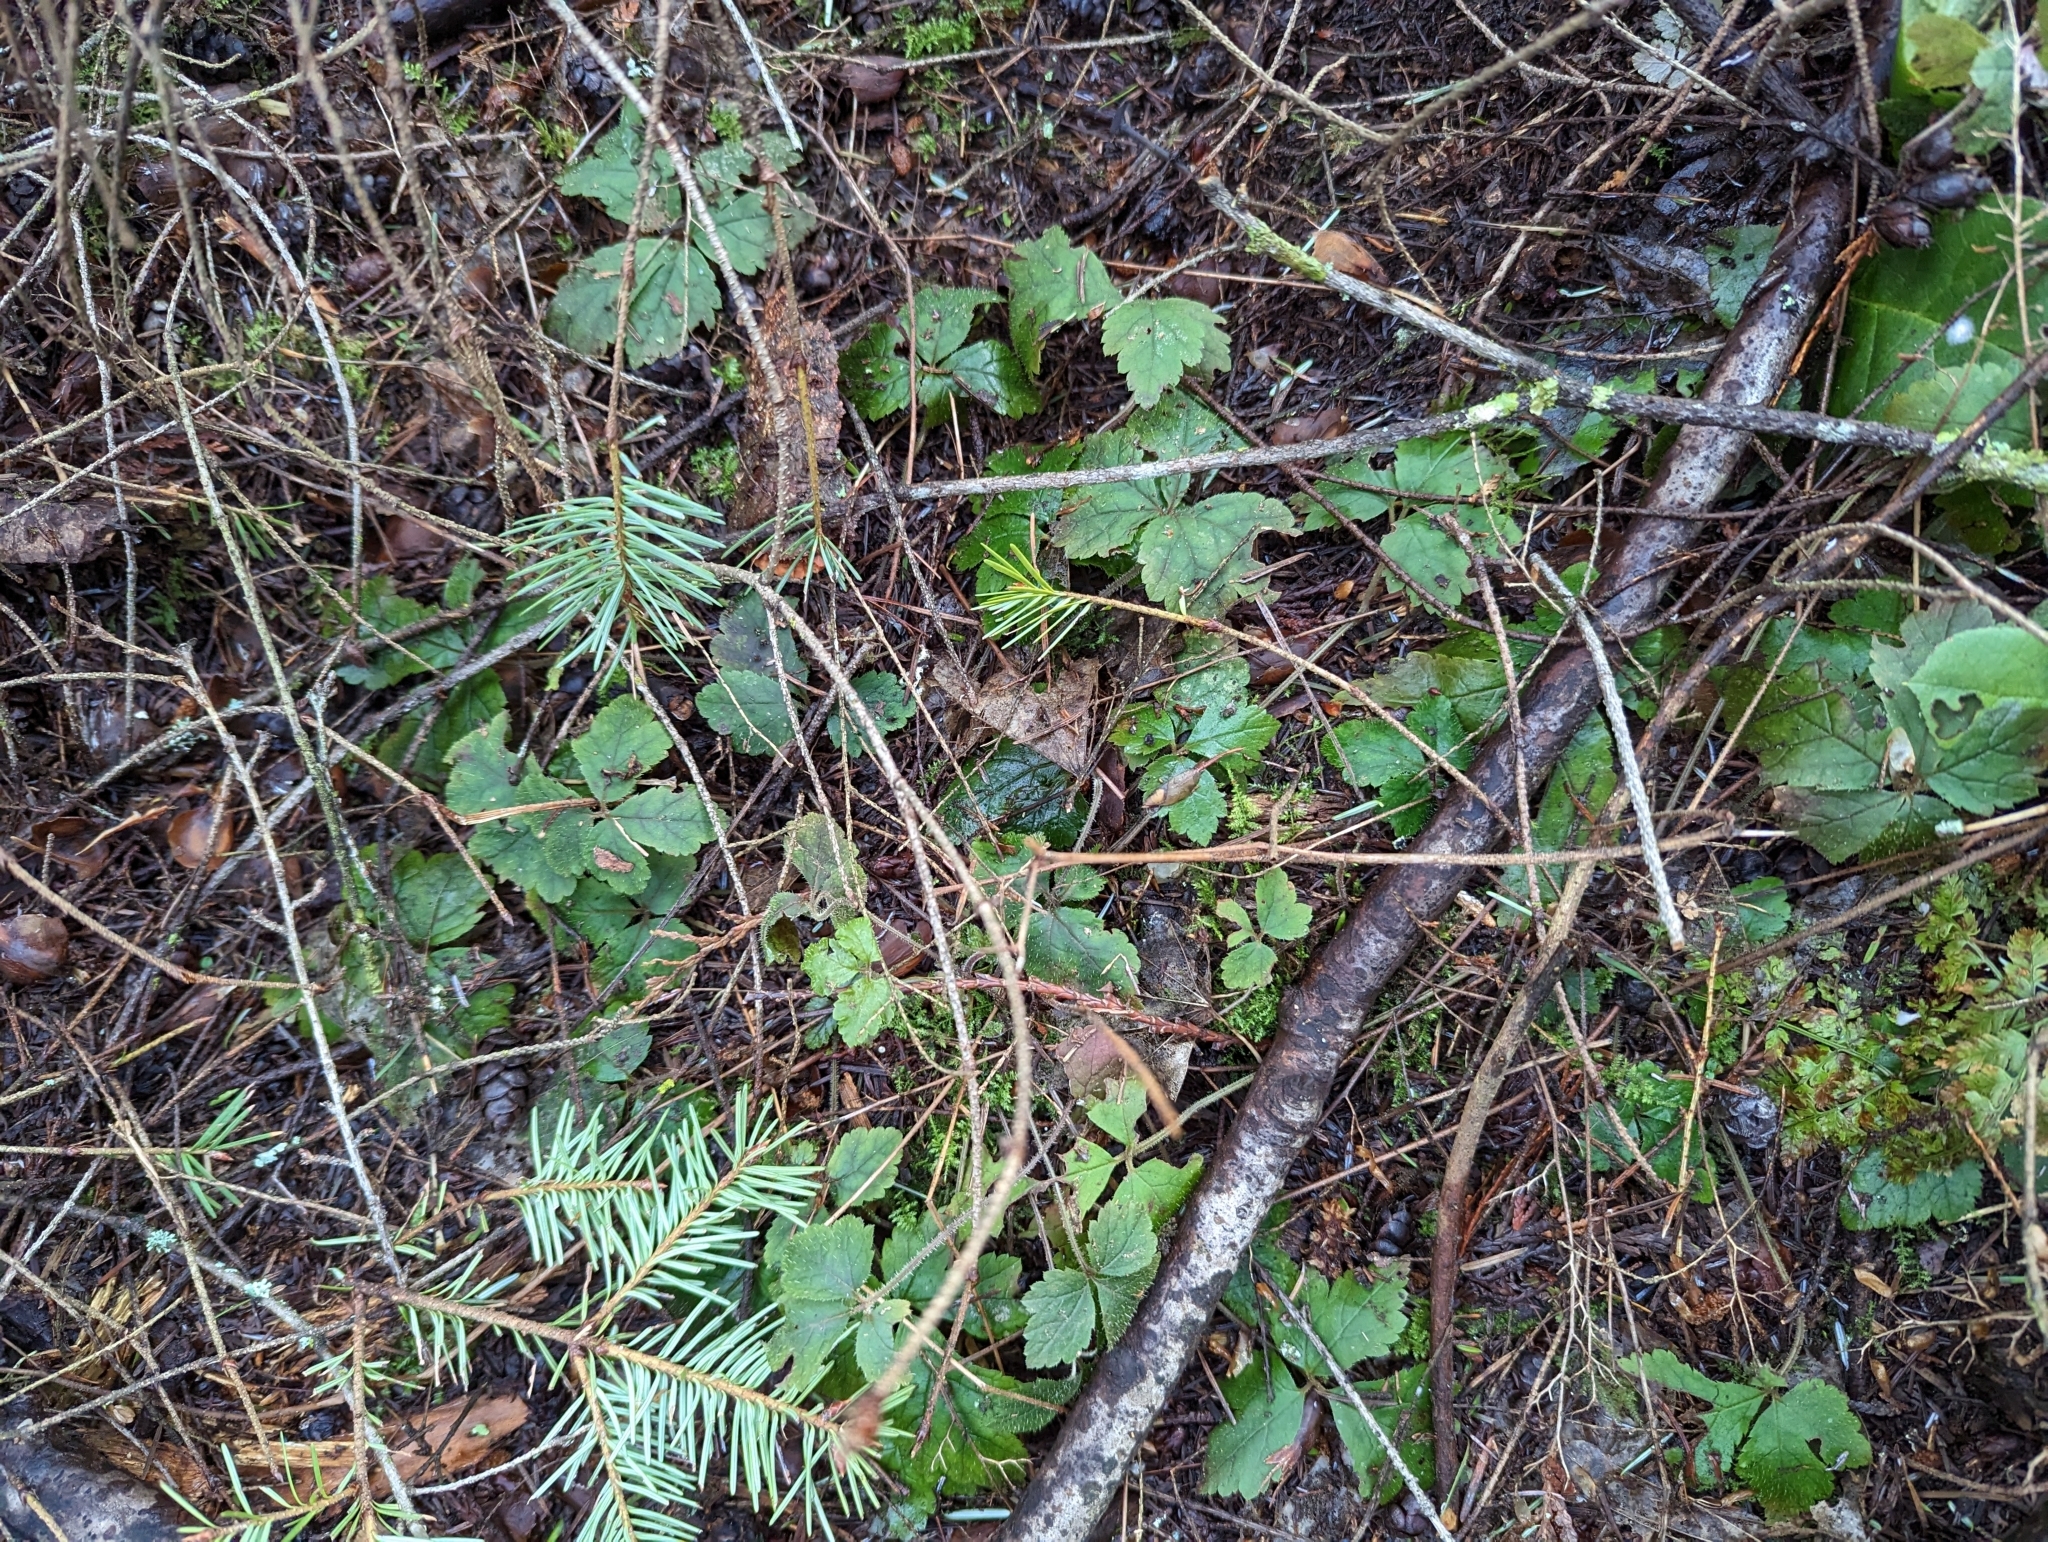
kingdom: Plantae
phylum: Tracheophyta
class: Magnoliopsida
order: Saxifragales
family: Saxifragaceae
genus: Tiarella
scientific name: Tiarella trifoliata
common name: Sugar-scoop
